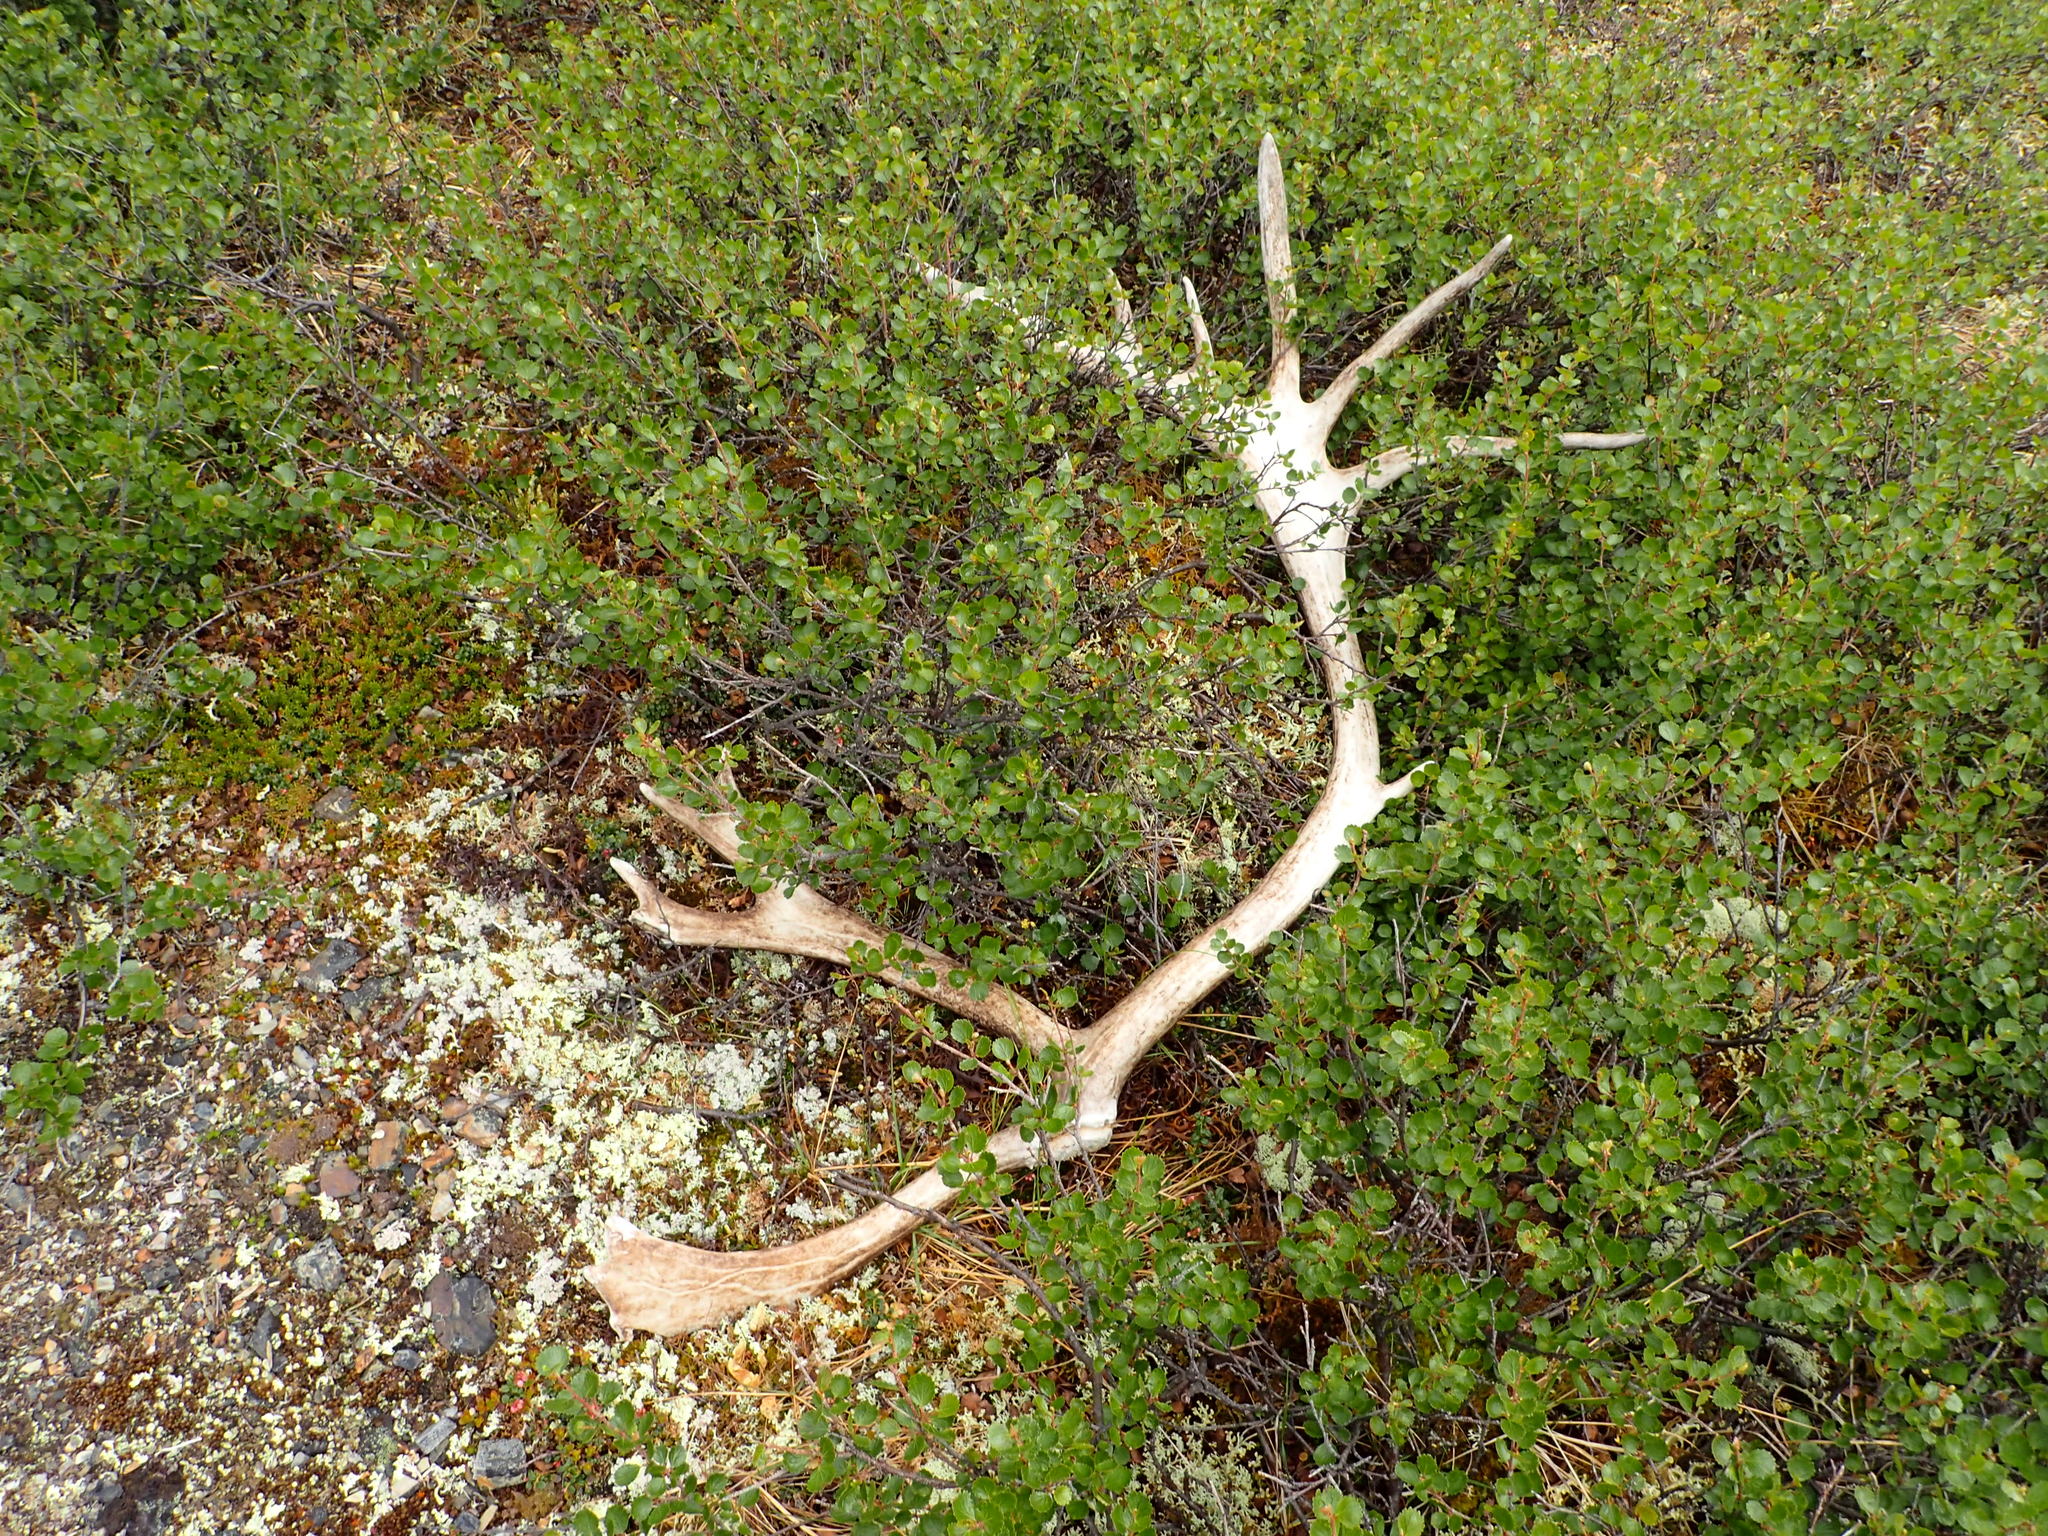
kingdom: Animalia
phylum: Chordata
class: Mammalia
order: Artiodactyla
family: Cervidae
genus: Rangifer
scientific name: Rangifer tarandus
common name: Reindeer
